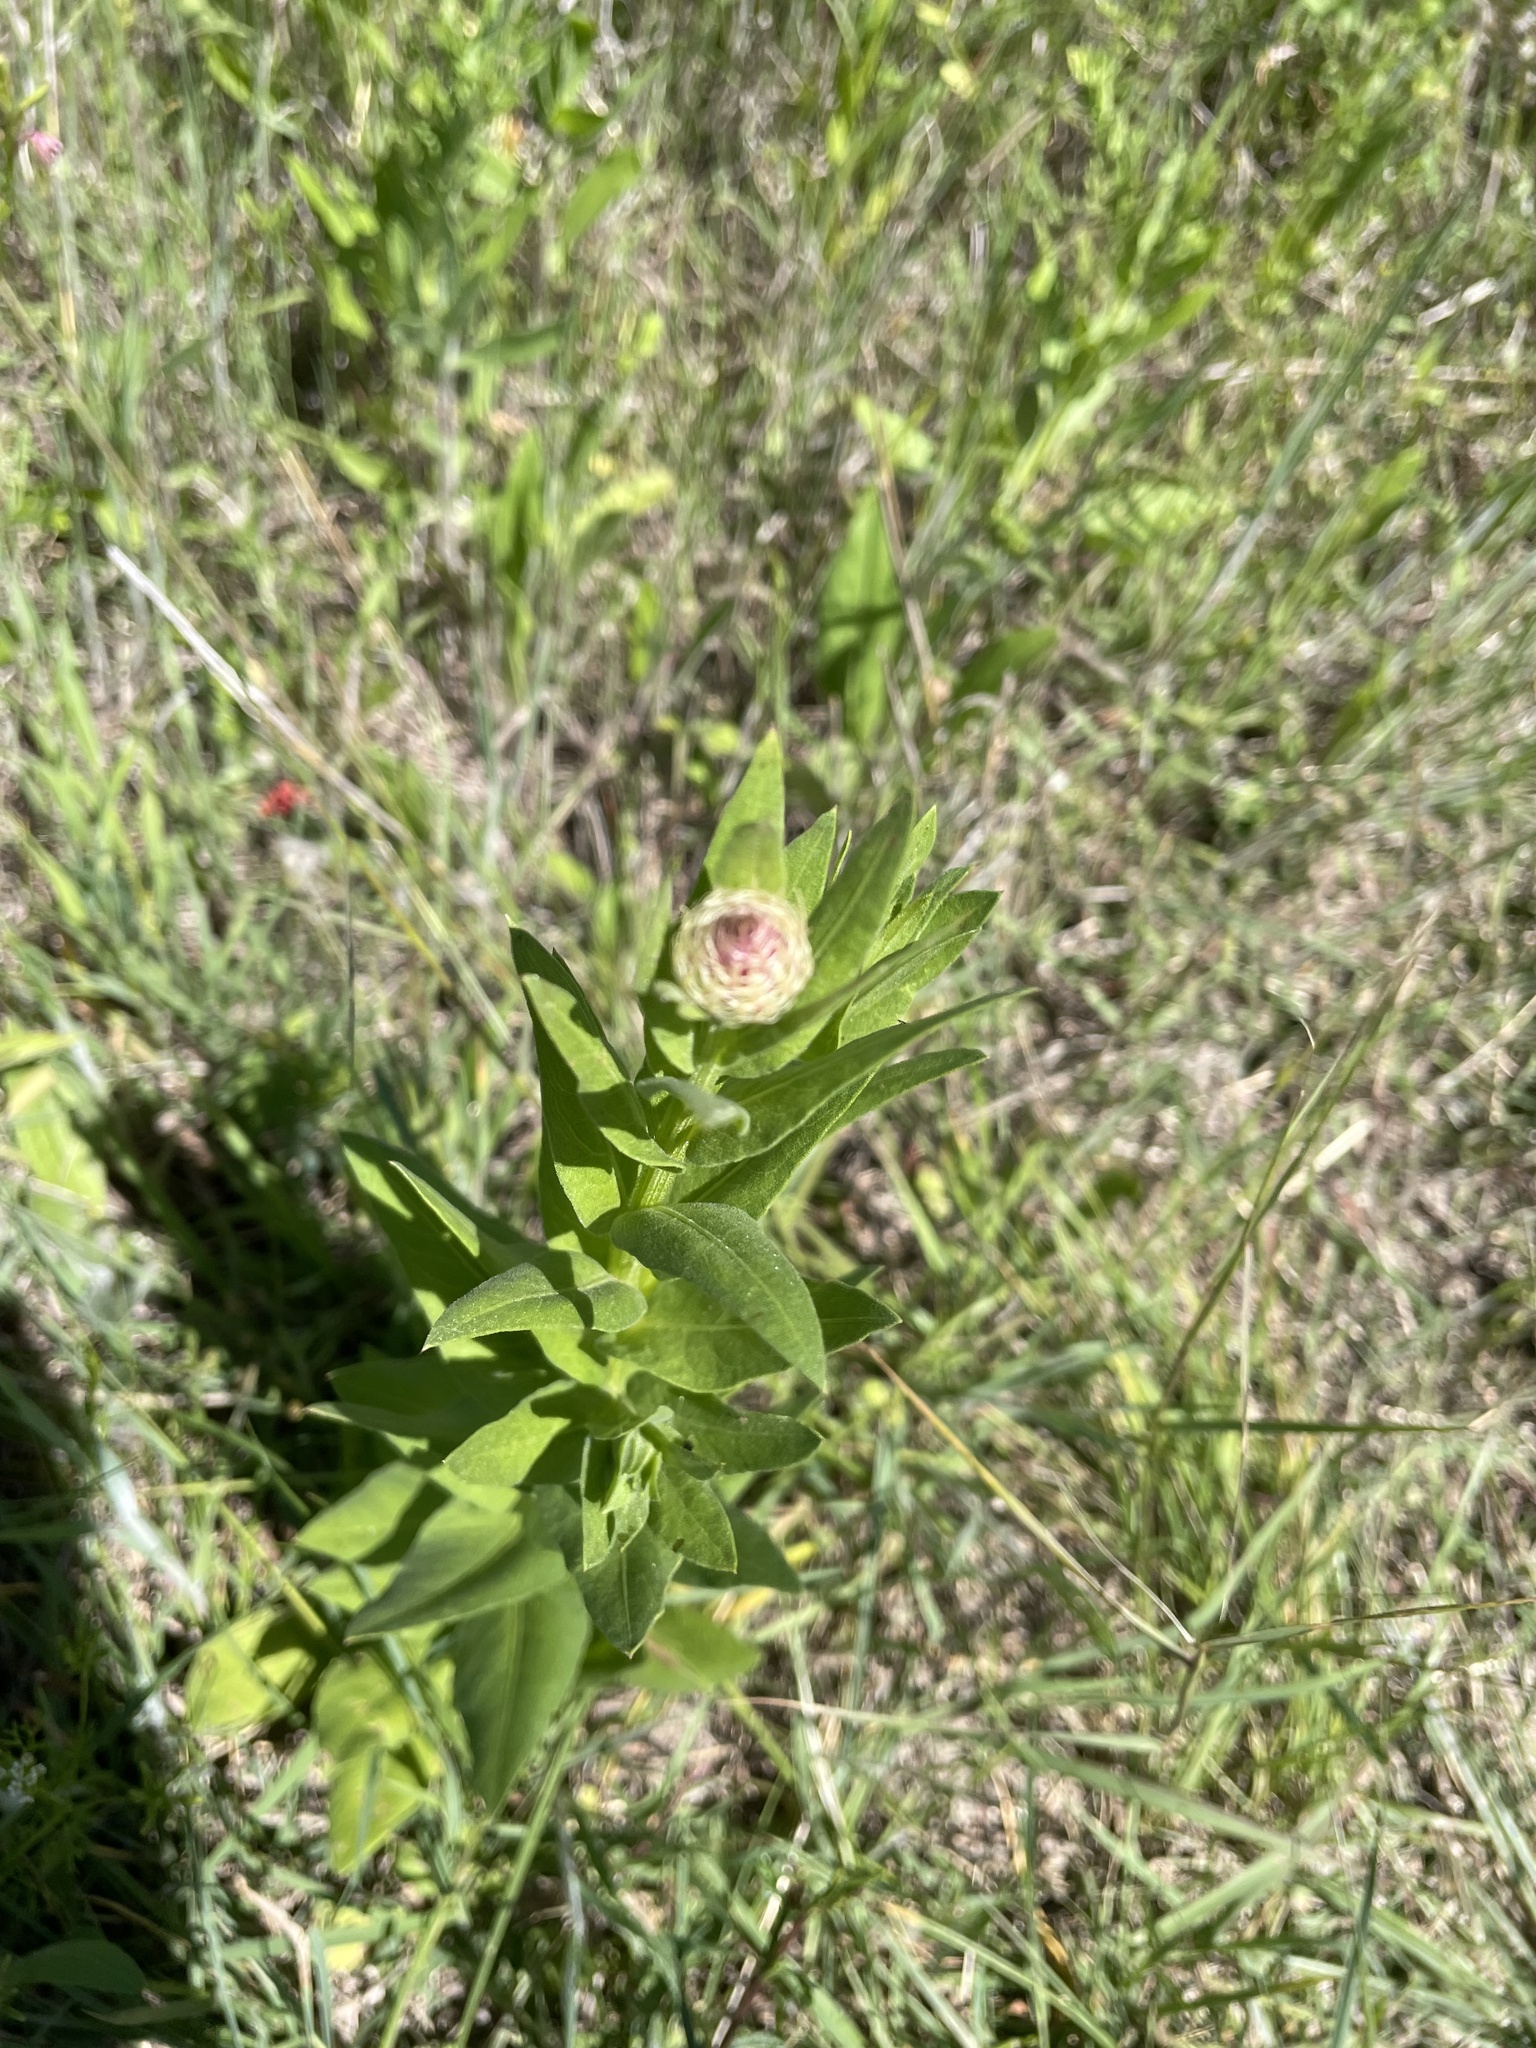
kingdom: Plantae
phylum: Tracheophyta
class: Magnoliopsida
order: Asterales
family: Asteraceae
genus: Plectocephalus
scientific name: Plectocephalus americanus
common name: American basket-flower
